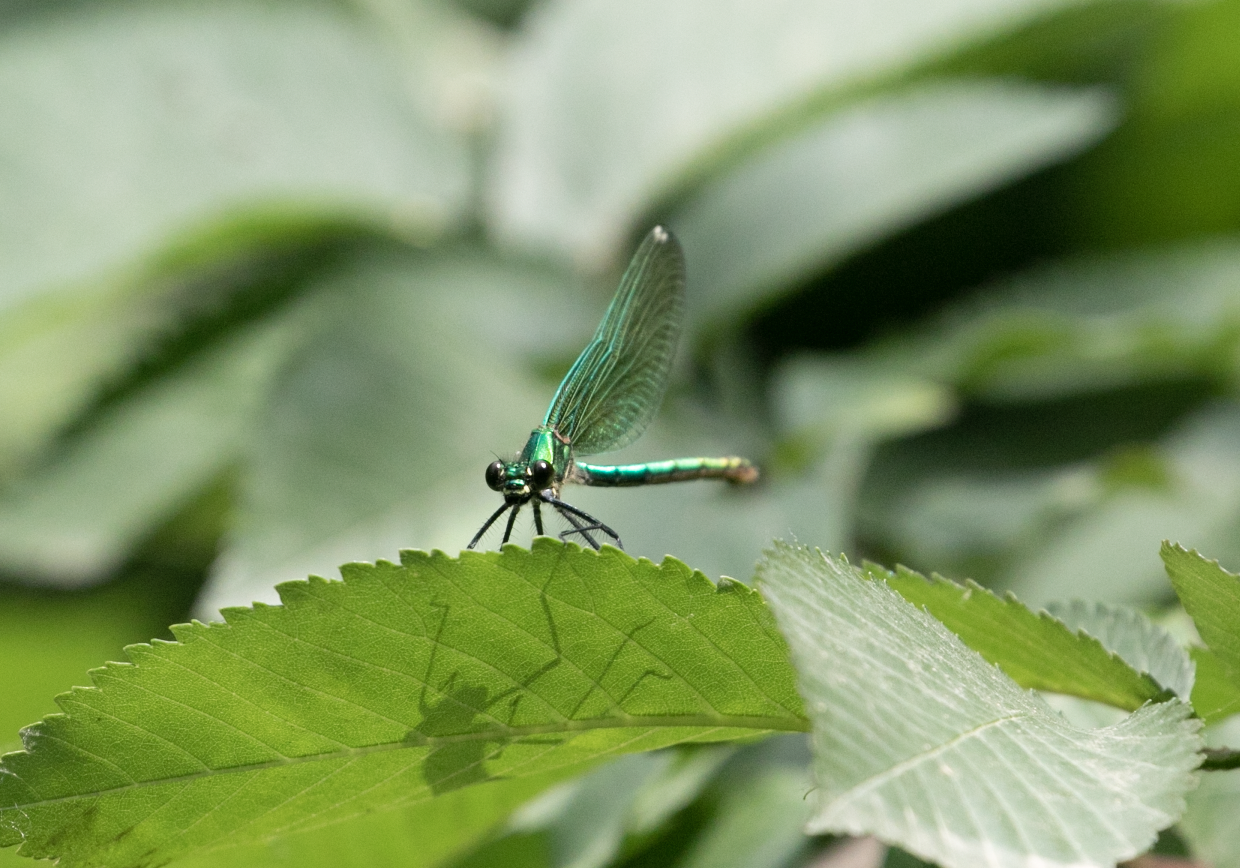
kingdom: Animalia
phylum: Arthropoda
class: Insecta
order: Odonata
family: Calopterygidae
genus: Calopteryx
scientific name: Calopteryx splendens
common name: Banded demoiselle
